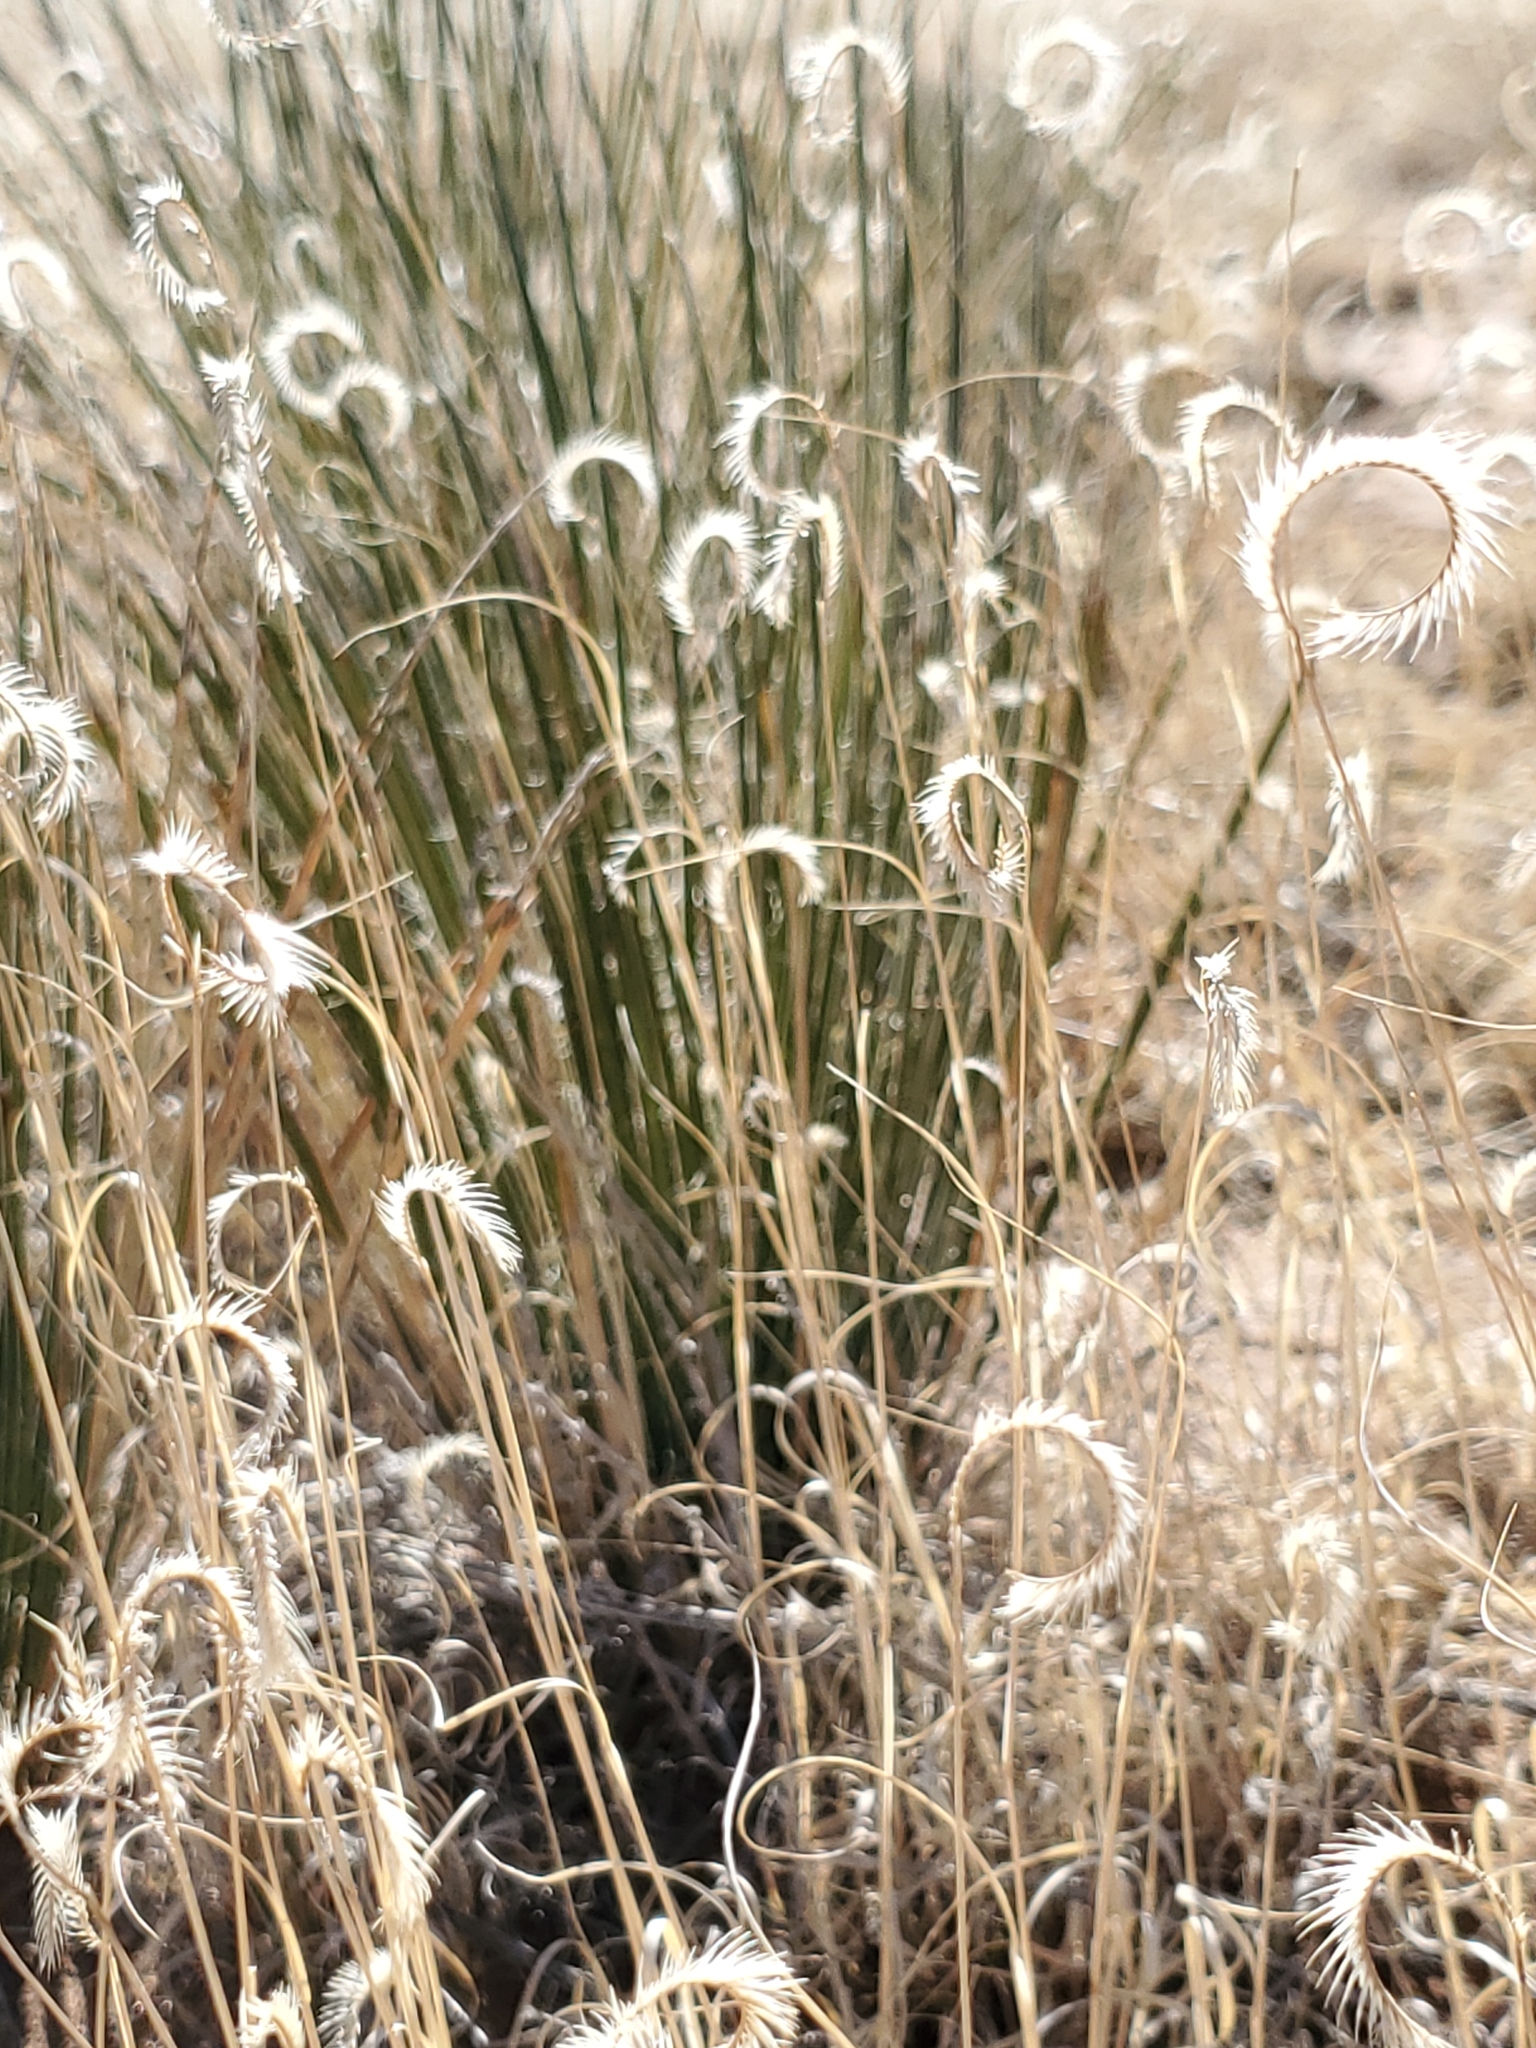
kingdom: Plantae
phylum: Tracheophyta
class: Liliopsida
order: Poales
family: Poaceae
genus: Bouteloua
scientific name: Bouteloua gracilis
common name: Blue grama
